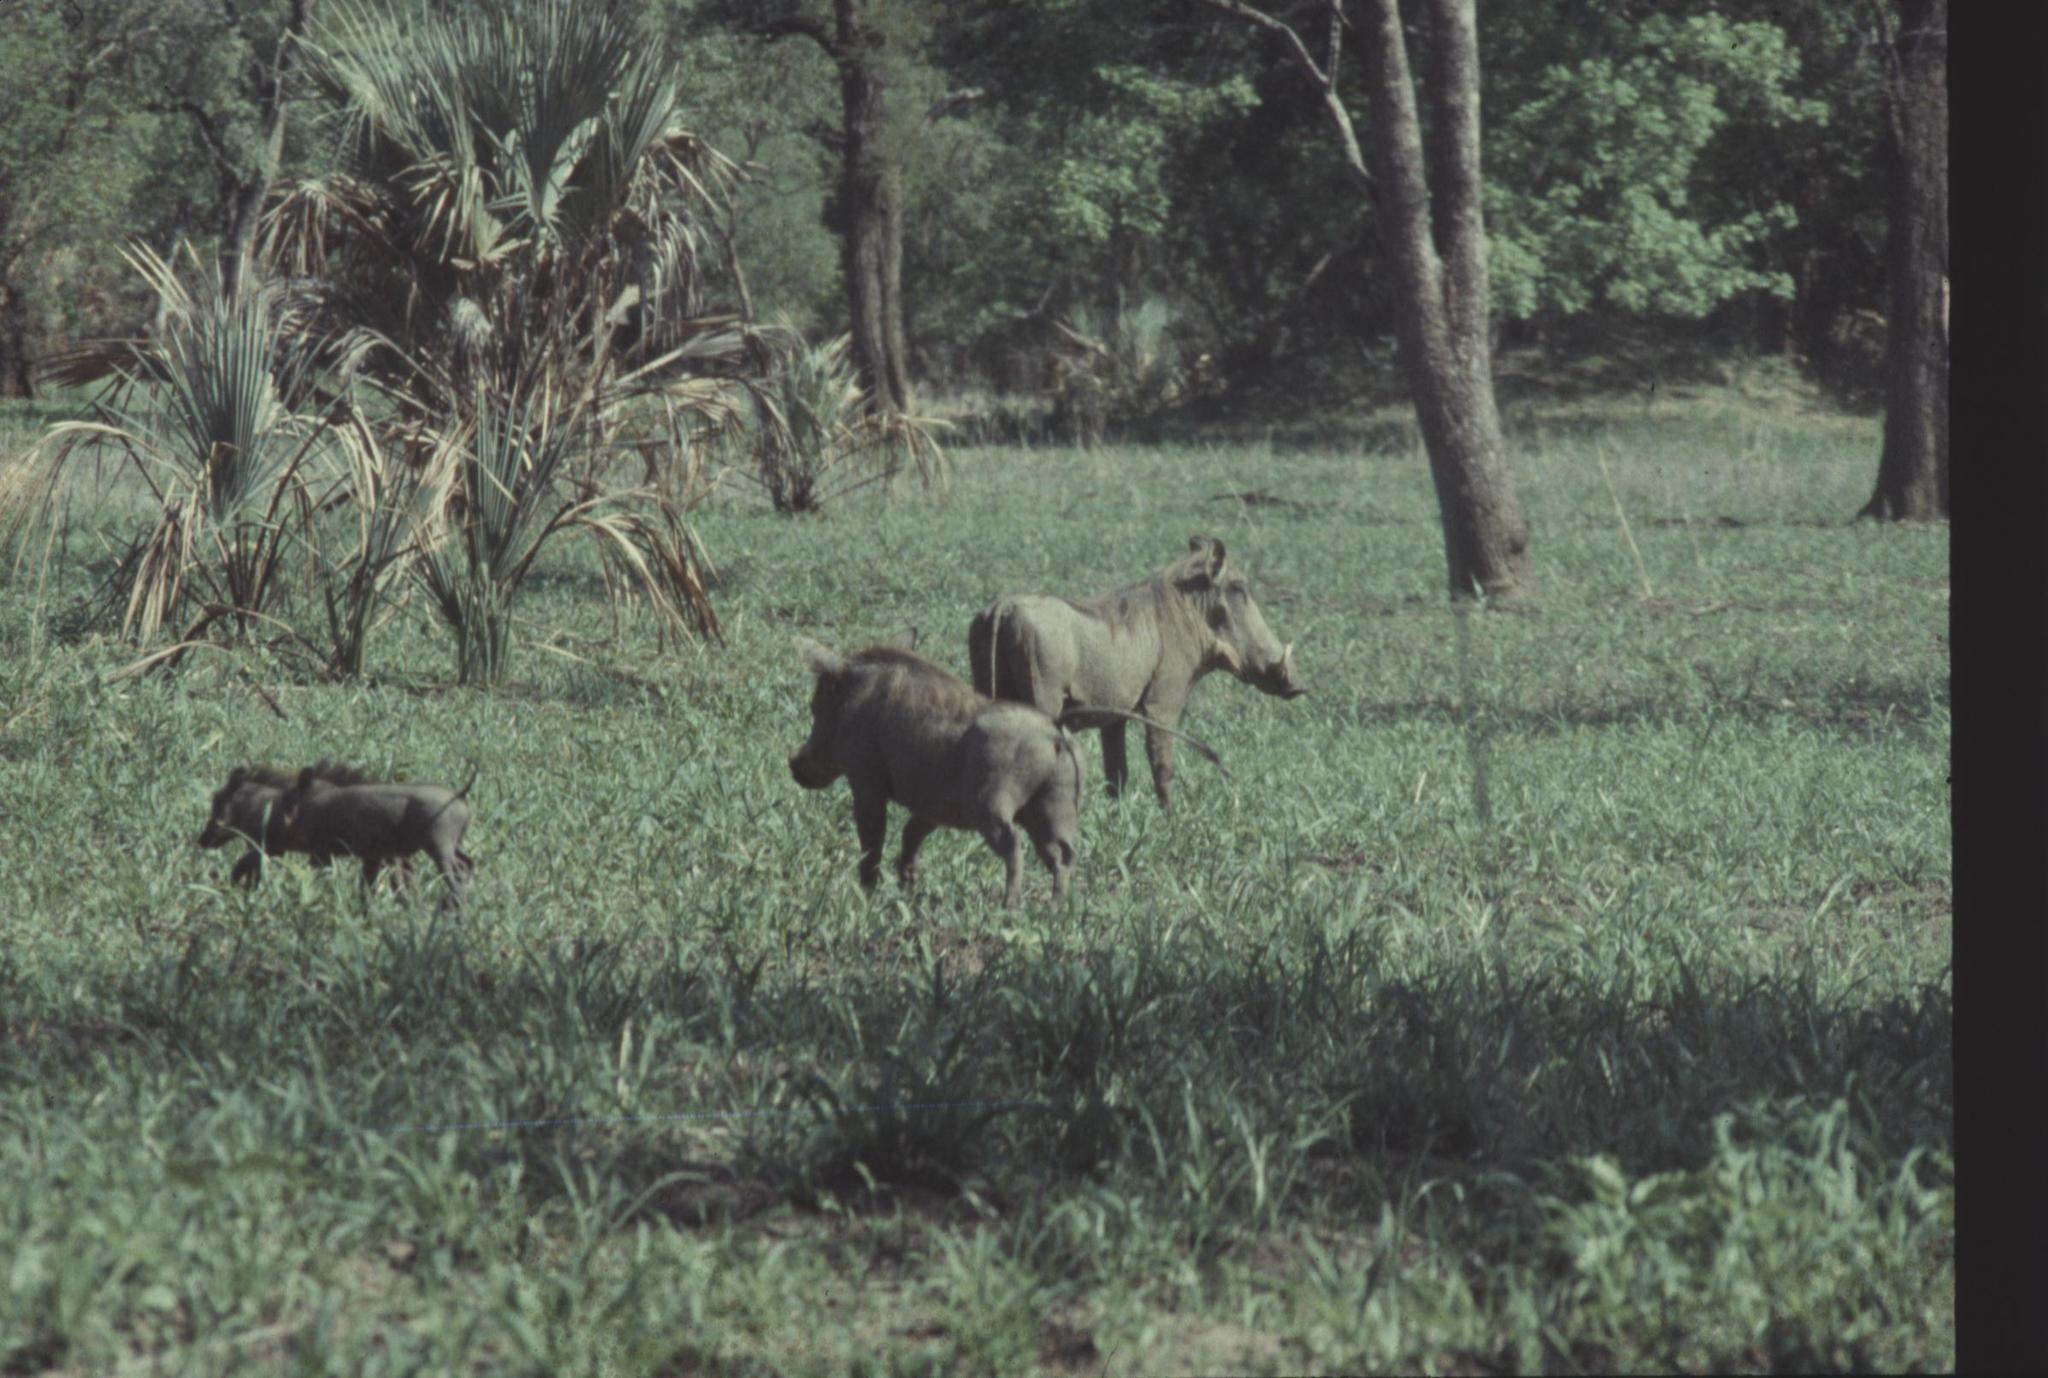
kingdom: Animalia
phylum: Chordata
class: Mammalia
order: Artiodactyla
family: Suidae
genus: Phacochoerus
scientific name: Phacochoerus africanus
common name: Common warthog
